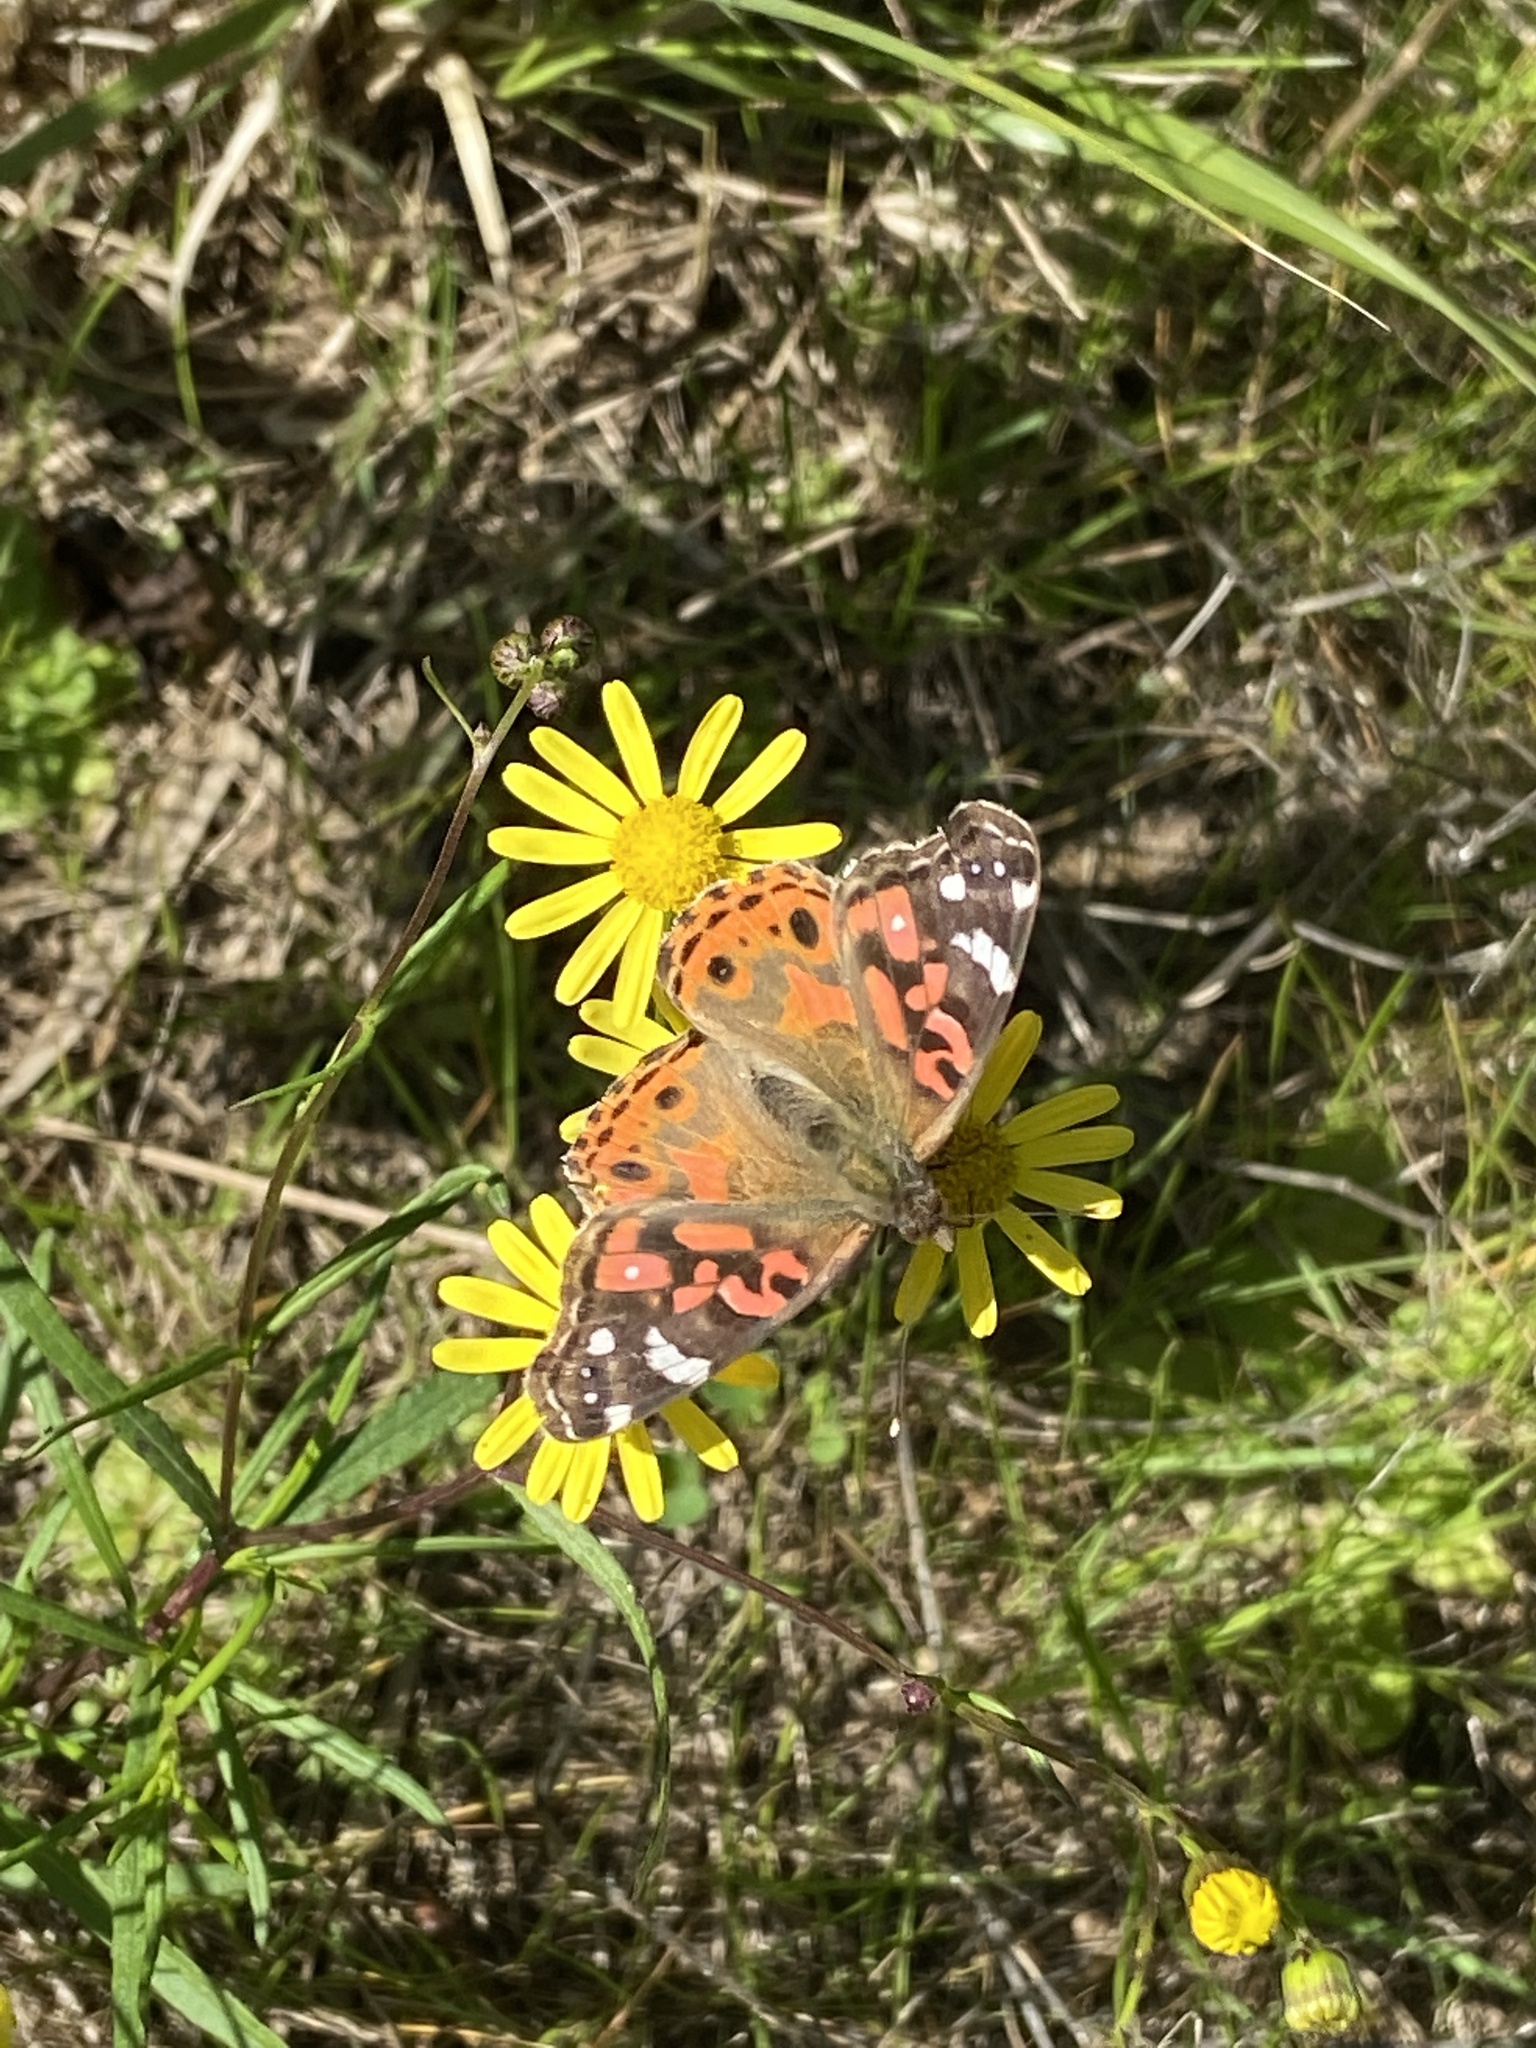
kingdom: Animalia
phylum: Arthropoda
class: Insecta
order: Lepidoptera
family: Nymphalidae
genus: Vanessa
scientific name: Vanessa braziliensis
